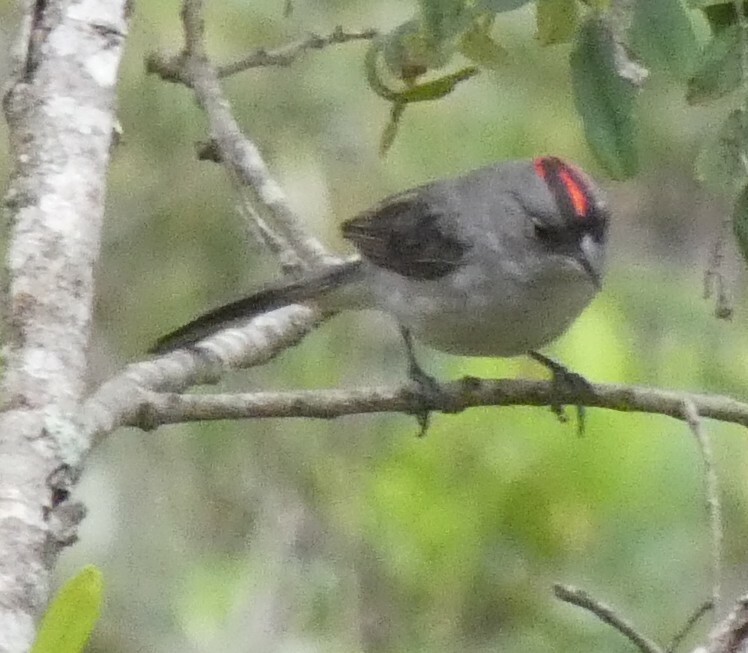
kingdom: Animalia
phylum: Chordata
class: Aves
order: Passeriformes
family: Thraupidae
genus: Coryphospingus
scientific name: Coryphospingus pileatus
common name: Grey pileated finch
